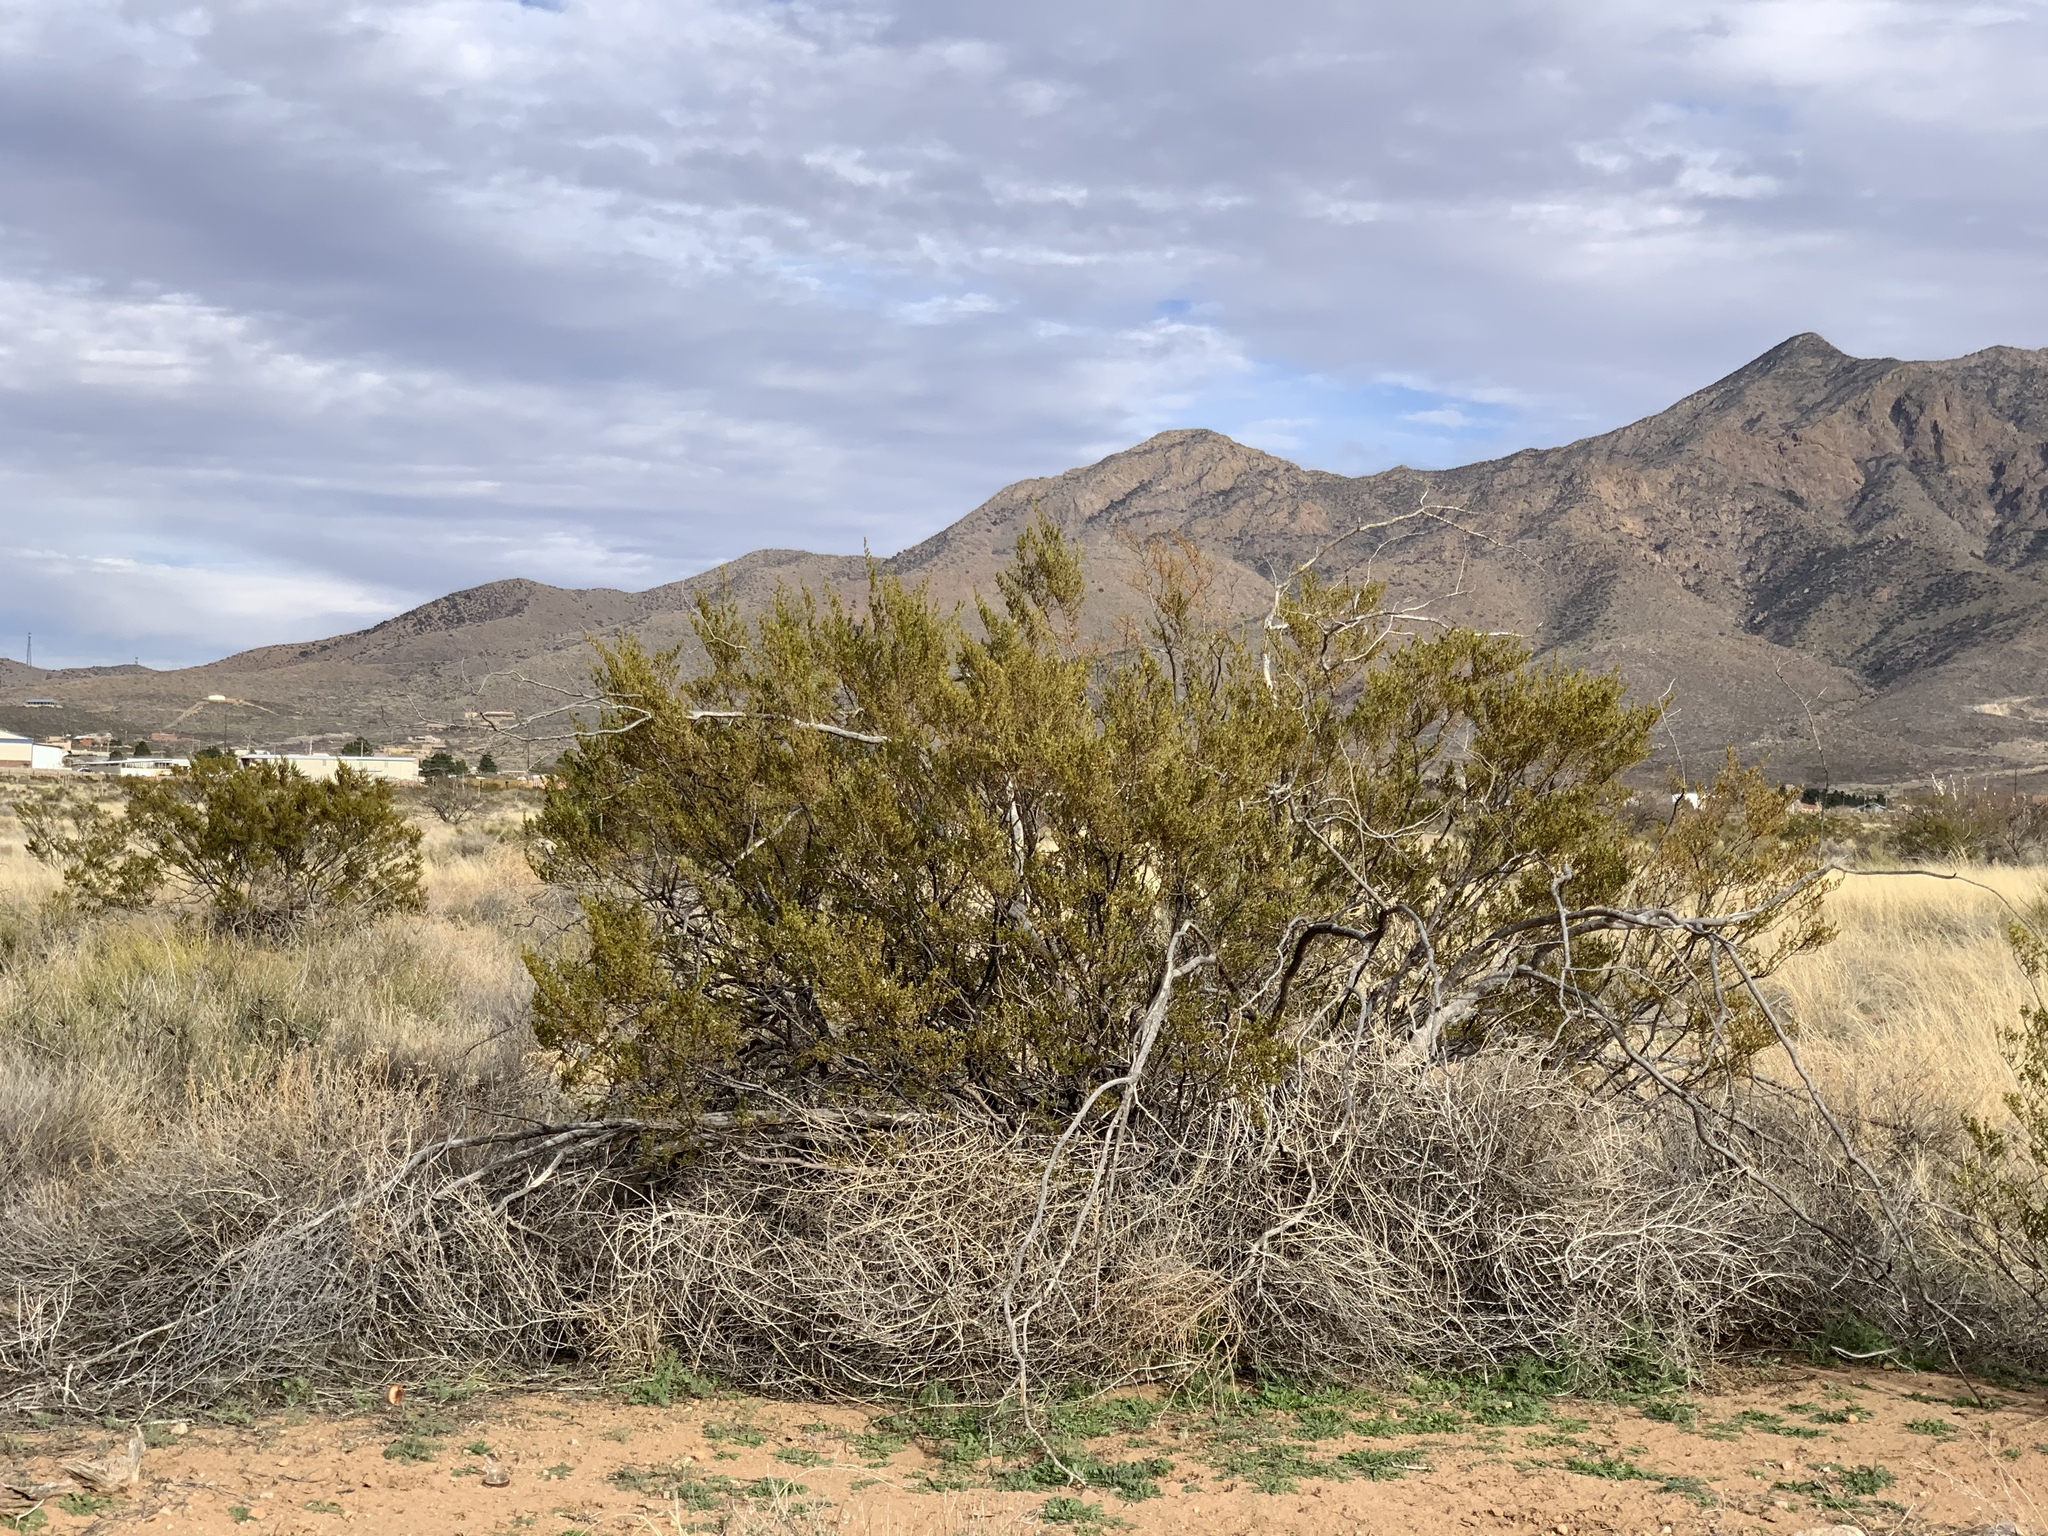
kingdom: Plantae
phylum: Tracheophyta
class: Magnoliopsida
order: Zygophyllales
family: Zygophyllaceae
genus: Larrea
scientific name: Larrea tridentata
